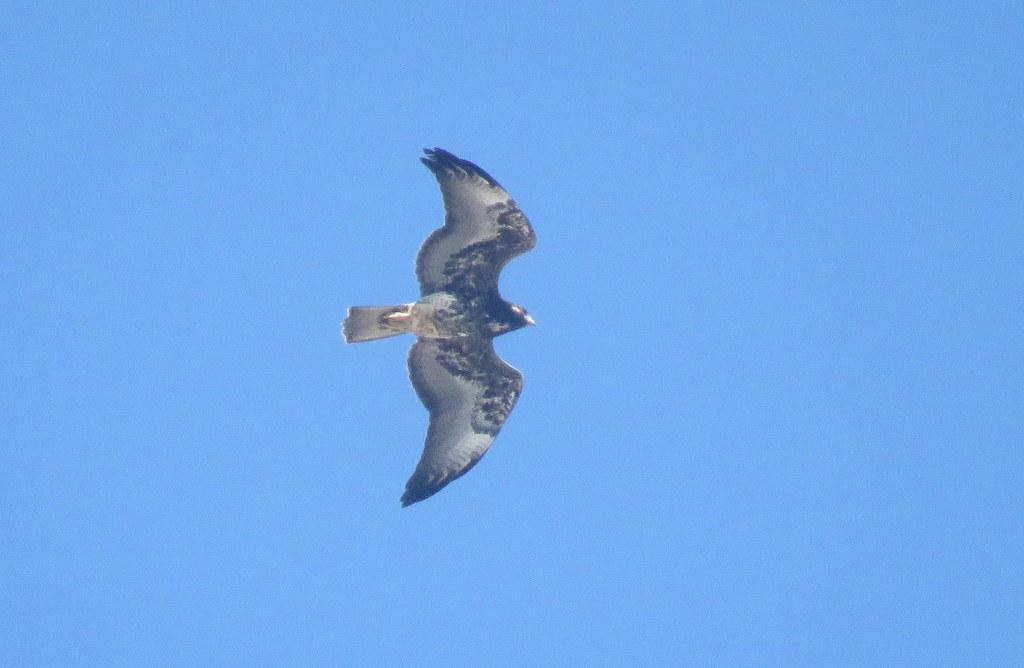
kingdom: Animalia
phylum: Chordata
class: Aves
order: Accipitriformes
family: Accipitridae
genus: Buteo
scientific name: Buteo albicaudatus
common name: White-tailed hawk
